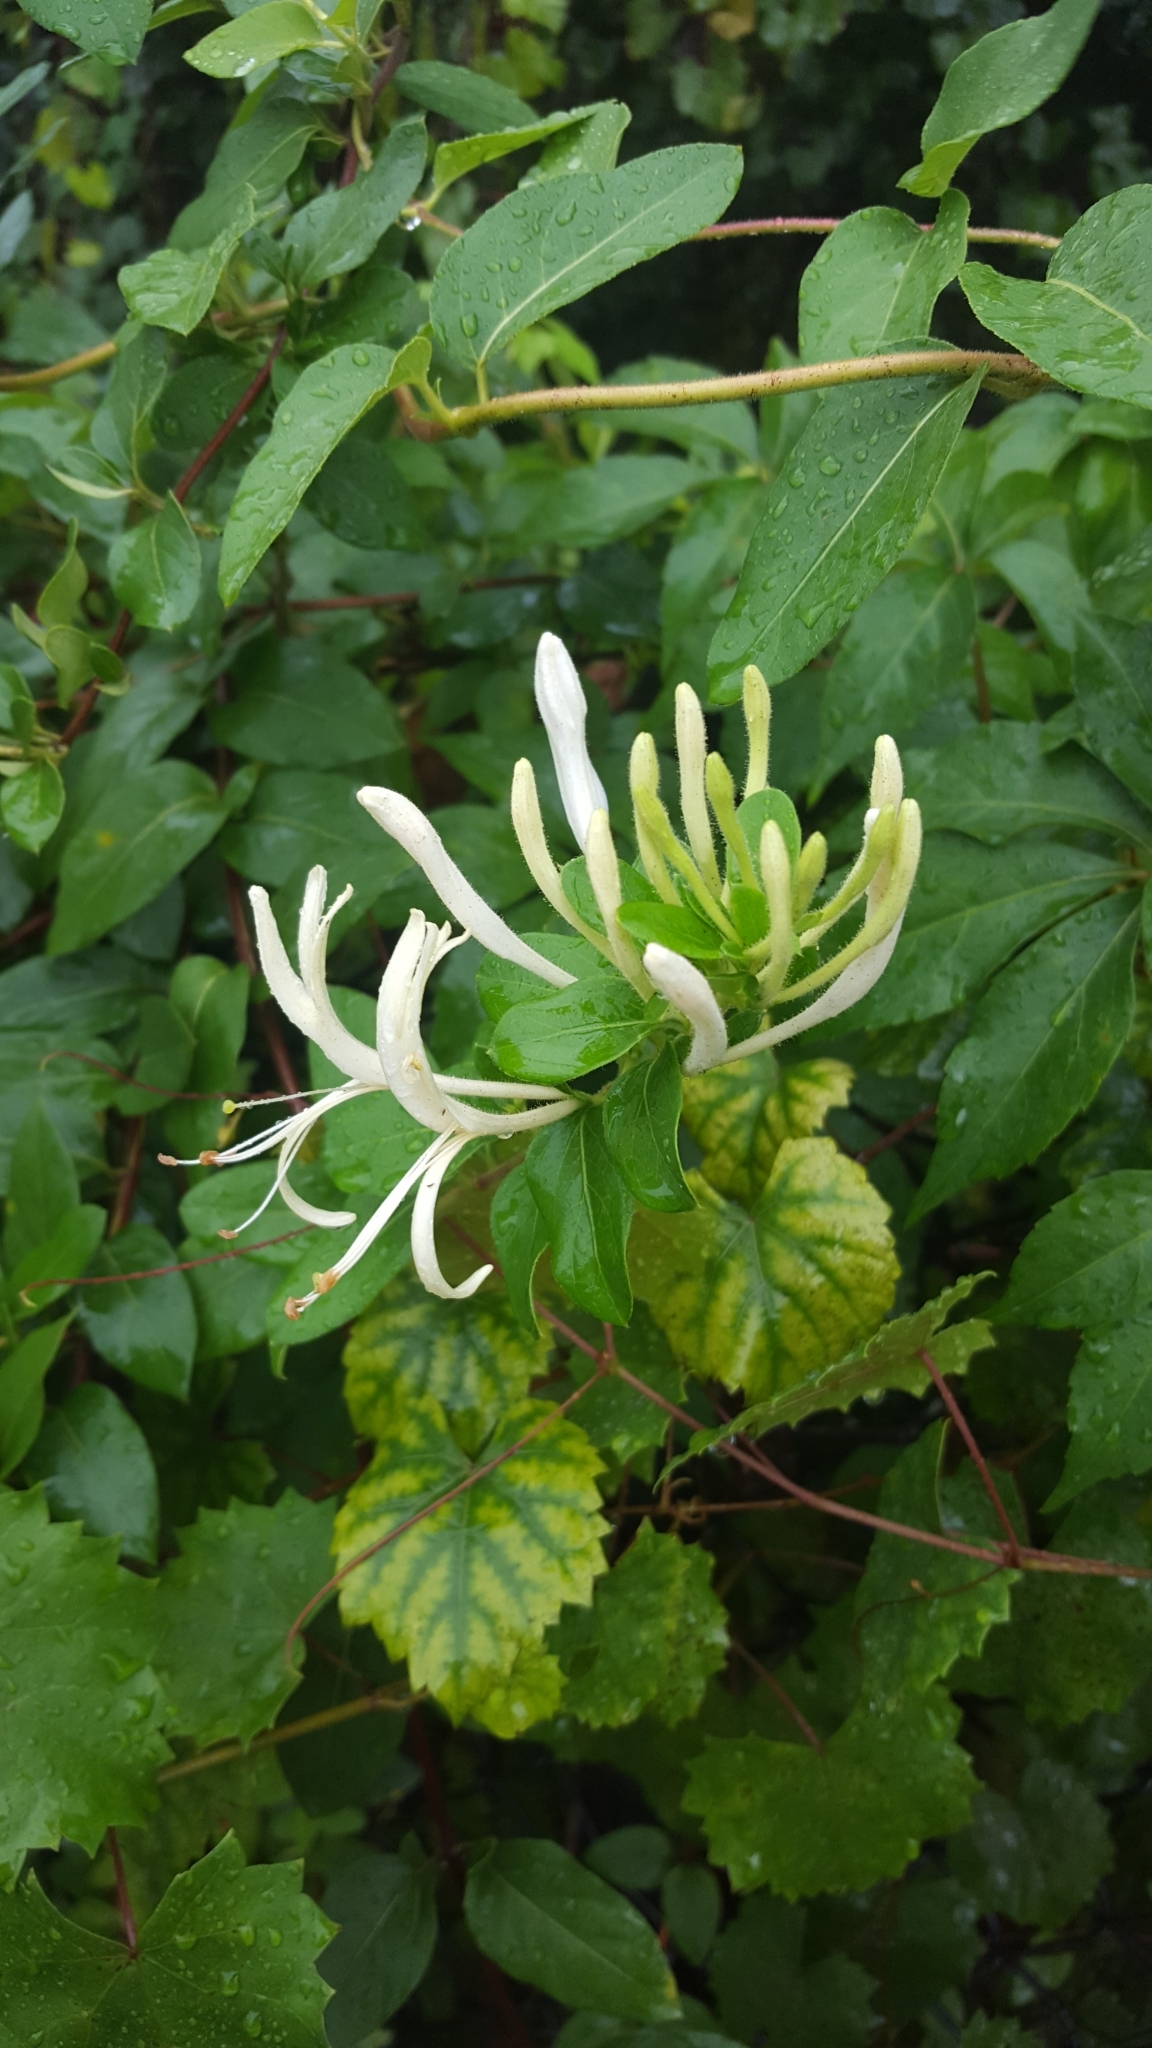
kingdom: Plantae
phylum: Tracheophyta
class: Magnoliopsida
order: Dipsacales
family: Caprifoliaceae
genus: Lonicera
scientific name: Lonicera japonica
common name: Japanese honeysuckle
